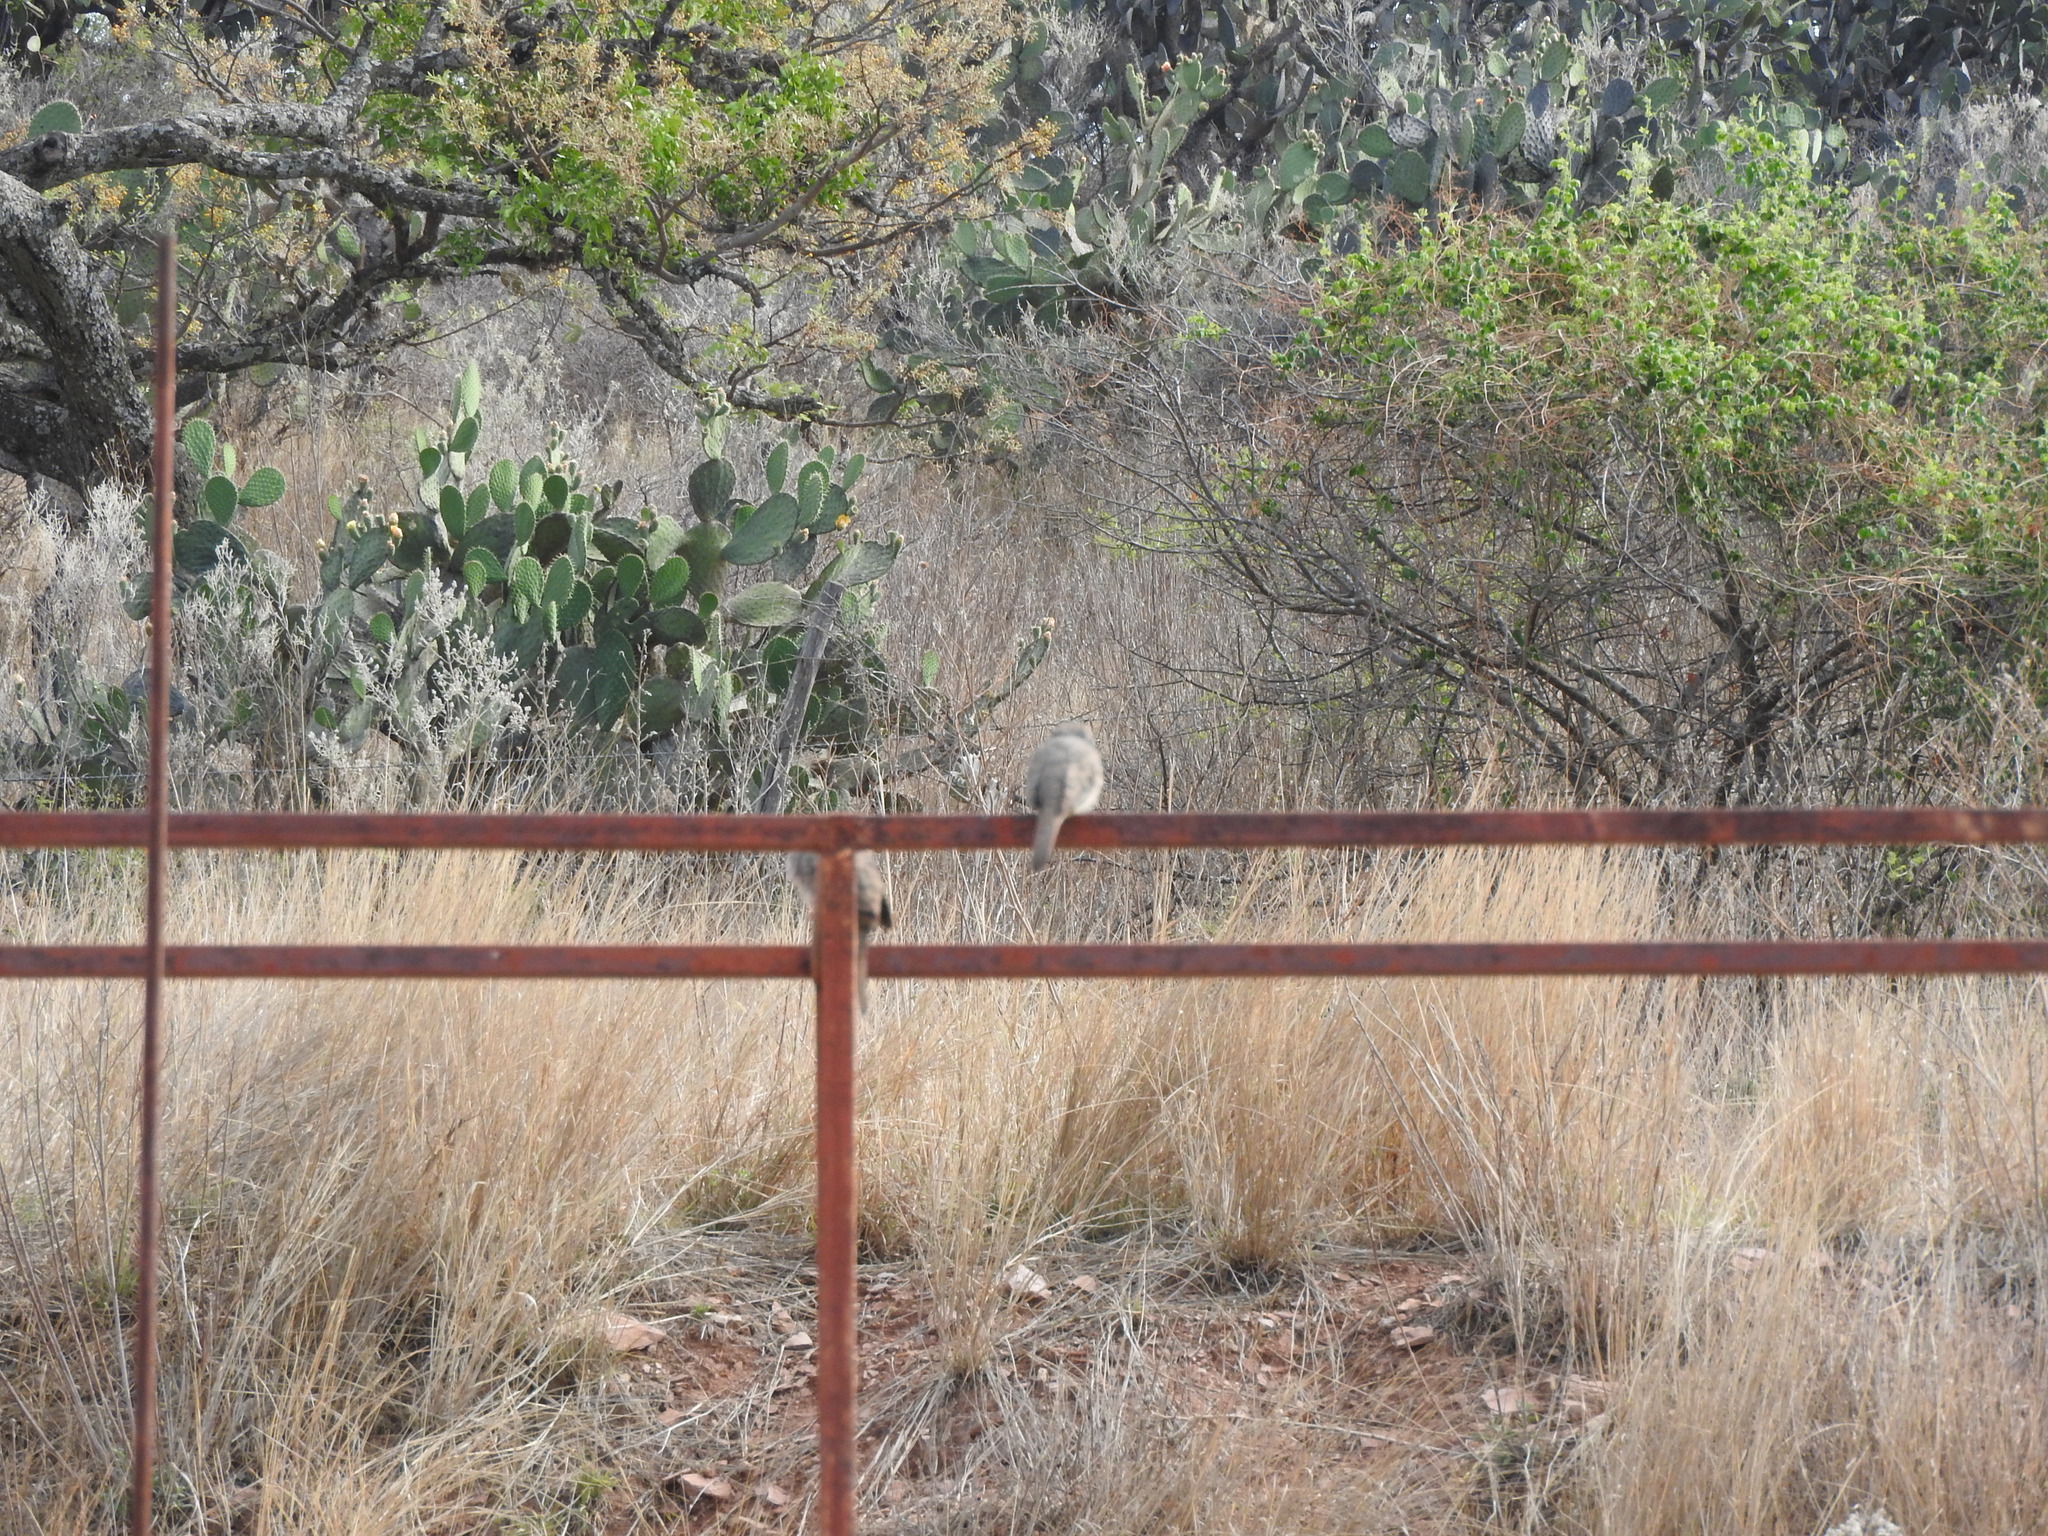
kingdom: Animalia
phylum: Chordata
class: Aves
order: Columbiformes
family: Columbidae
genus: Columbina
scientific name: Columbina inca
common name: Inca dove
